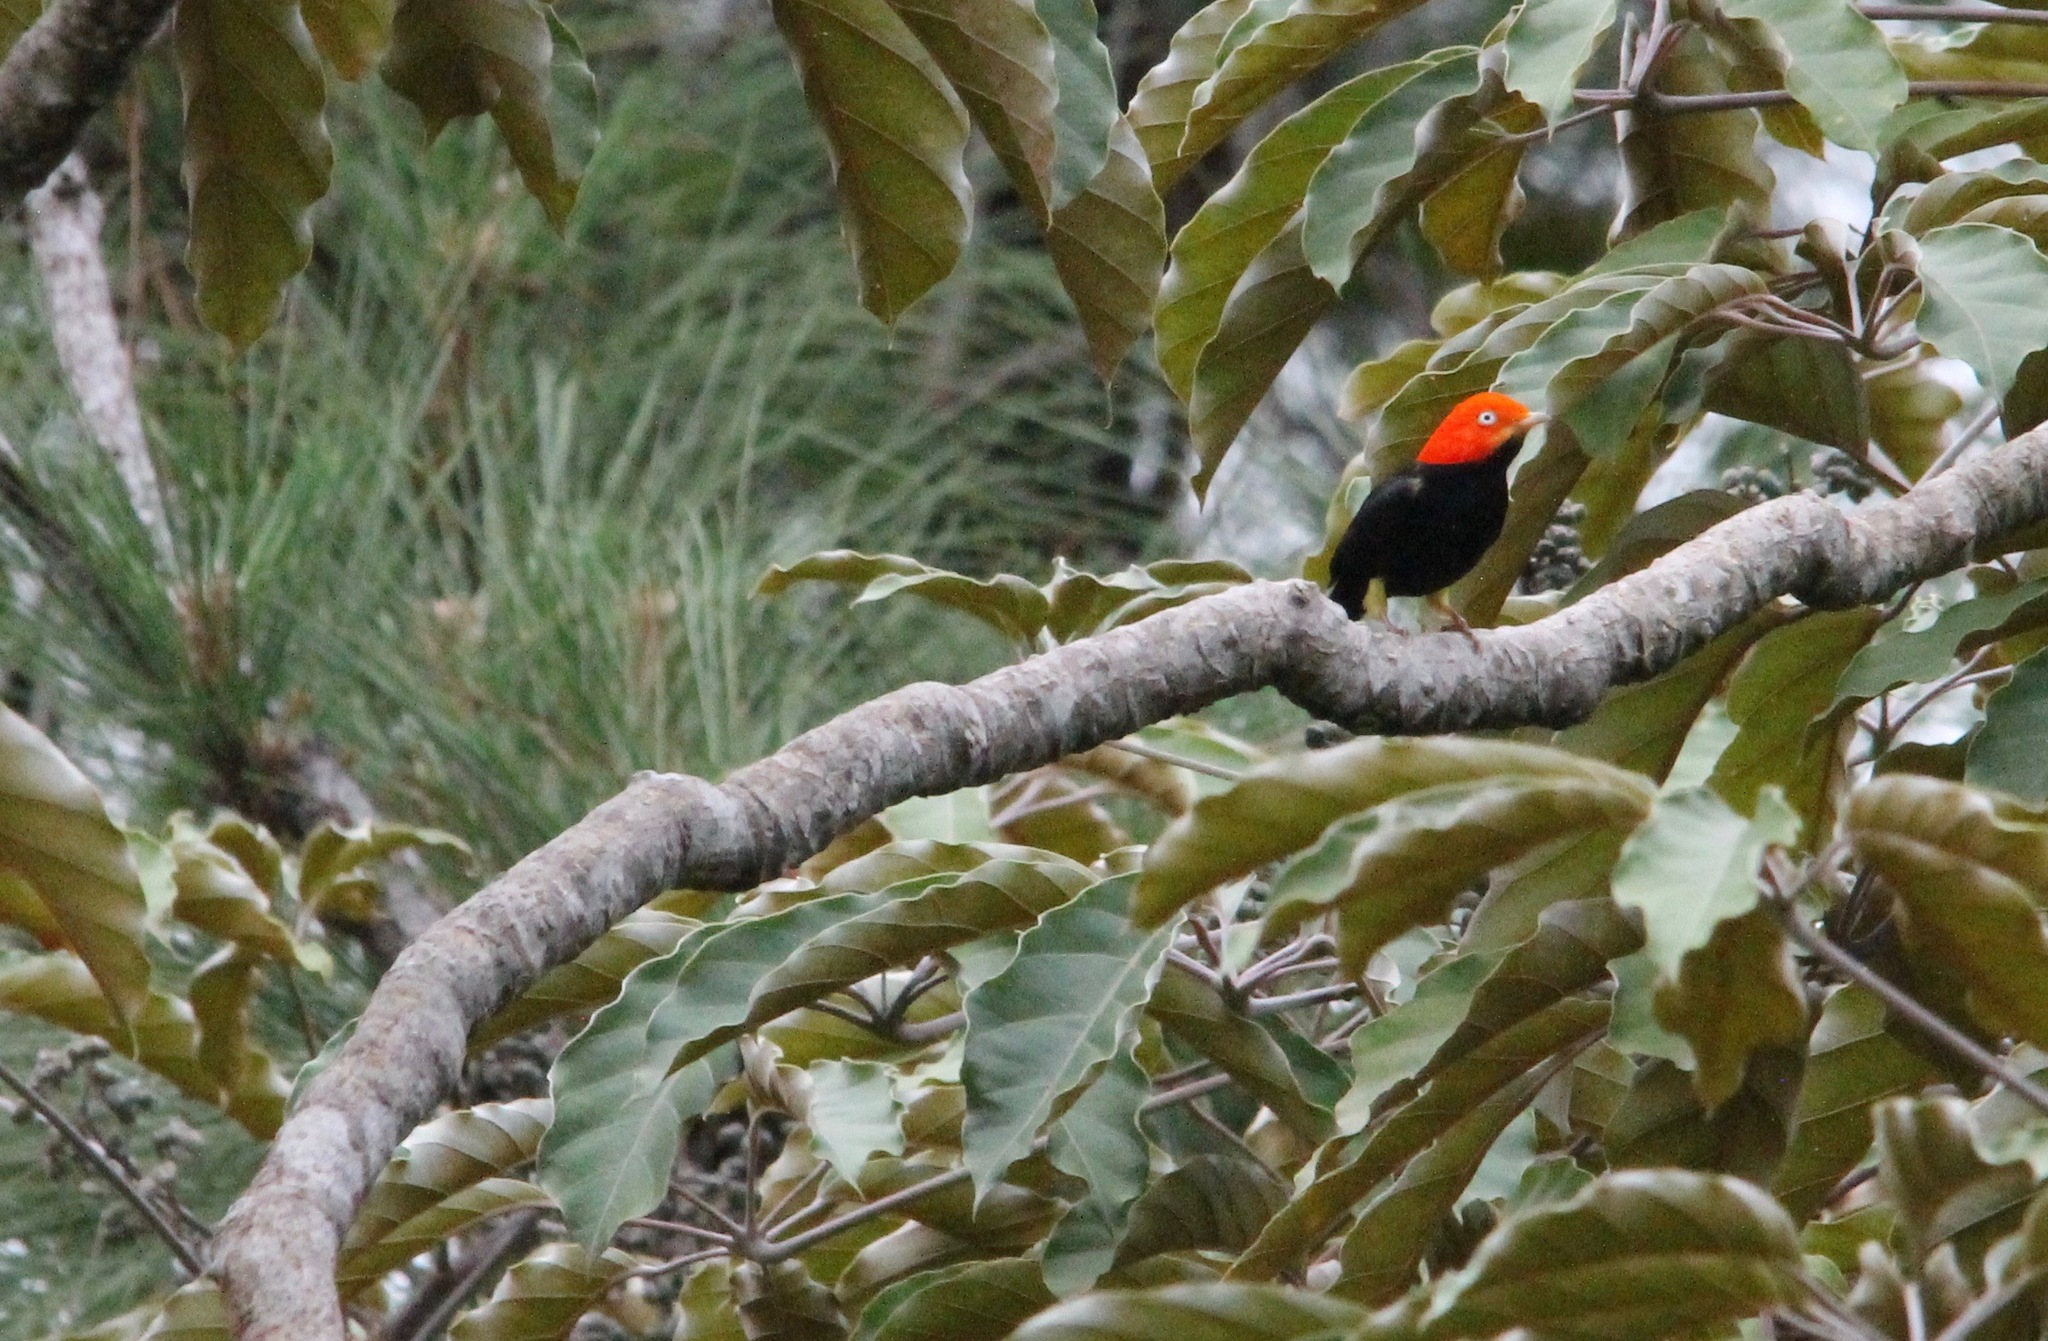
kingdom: Animalia
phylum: Chordata
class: Aves
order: Passeriformes
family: Pipridae
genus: Pipra
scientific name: Pipra mentalis
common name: Red-capped manakin
